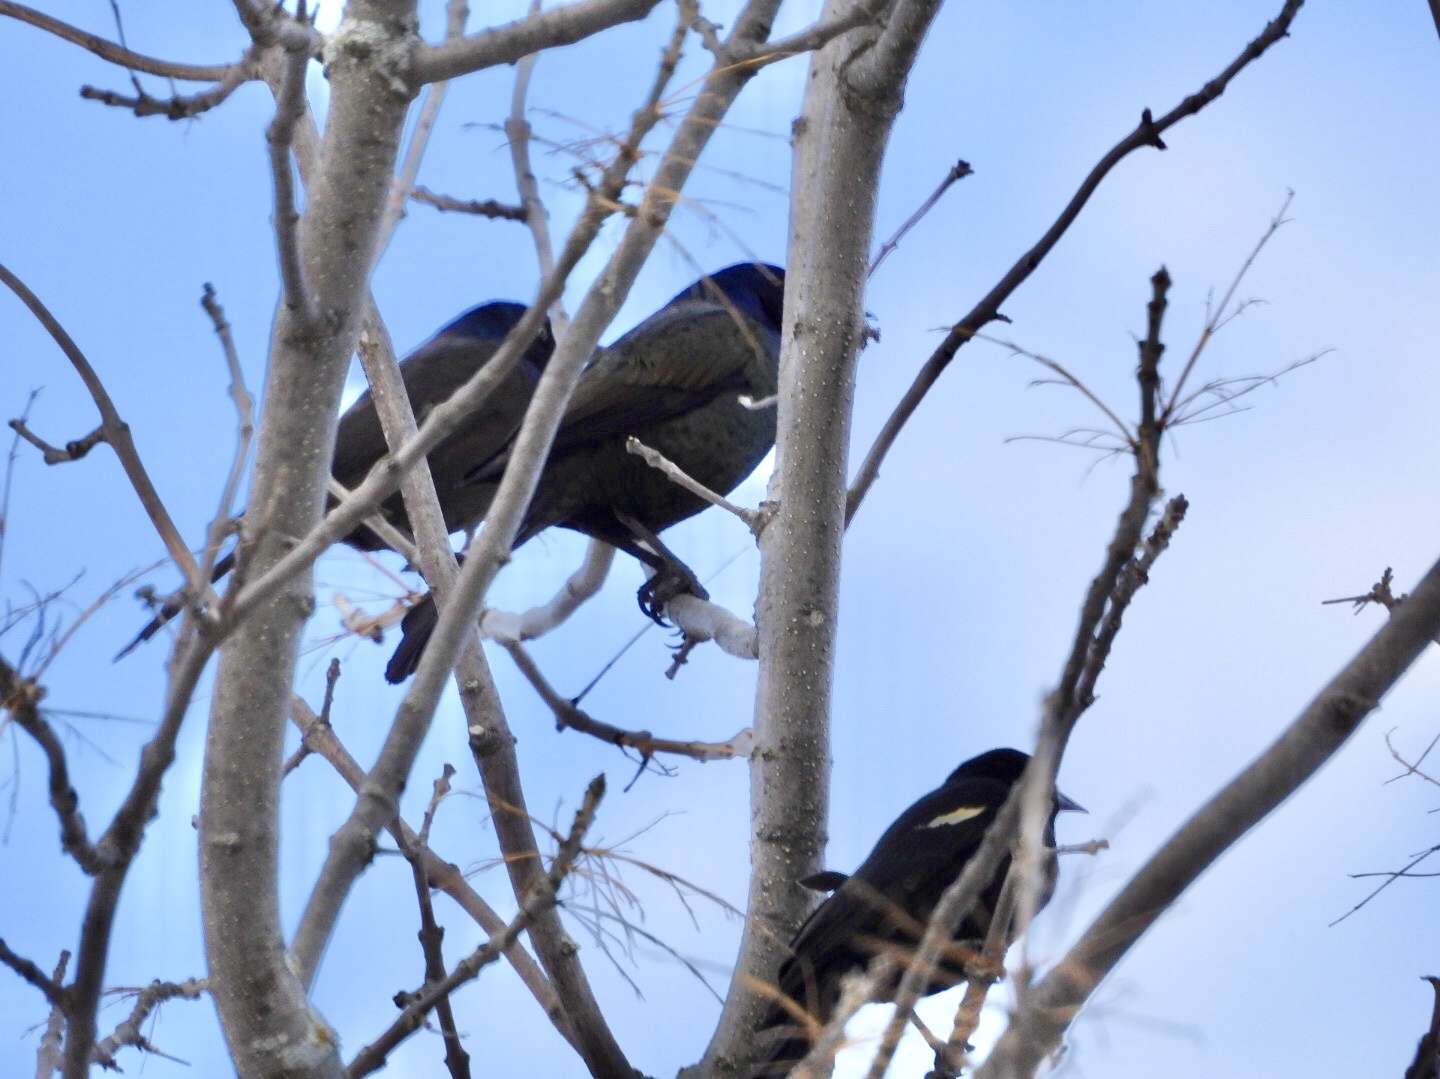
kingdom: Animalia
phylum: Chordata
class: Aves
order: Passeriformes
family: Icteridae
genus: Quiscalus
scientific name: Quiscalus quiscula
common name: Common grackle
